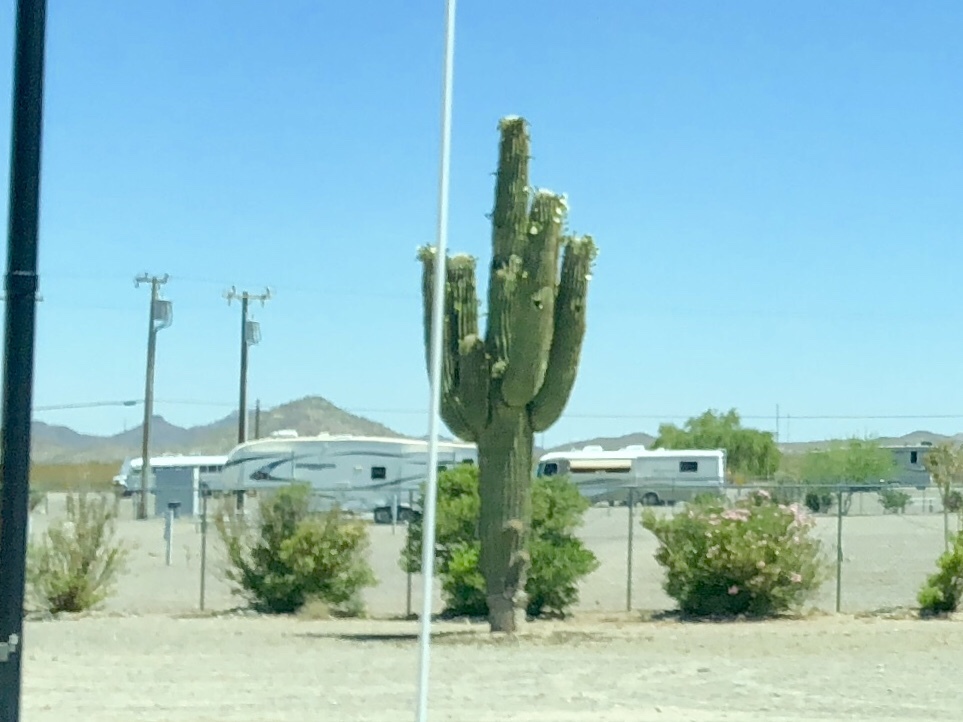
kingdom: Plantae
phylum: Tracheophyta
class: Magnoliopsida
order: Caryophyllales
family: Cactaceae
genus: Carnegiea
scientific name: Carnegiea gigantea
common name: Saguaro
